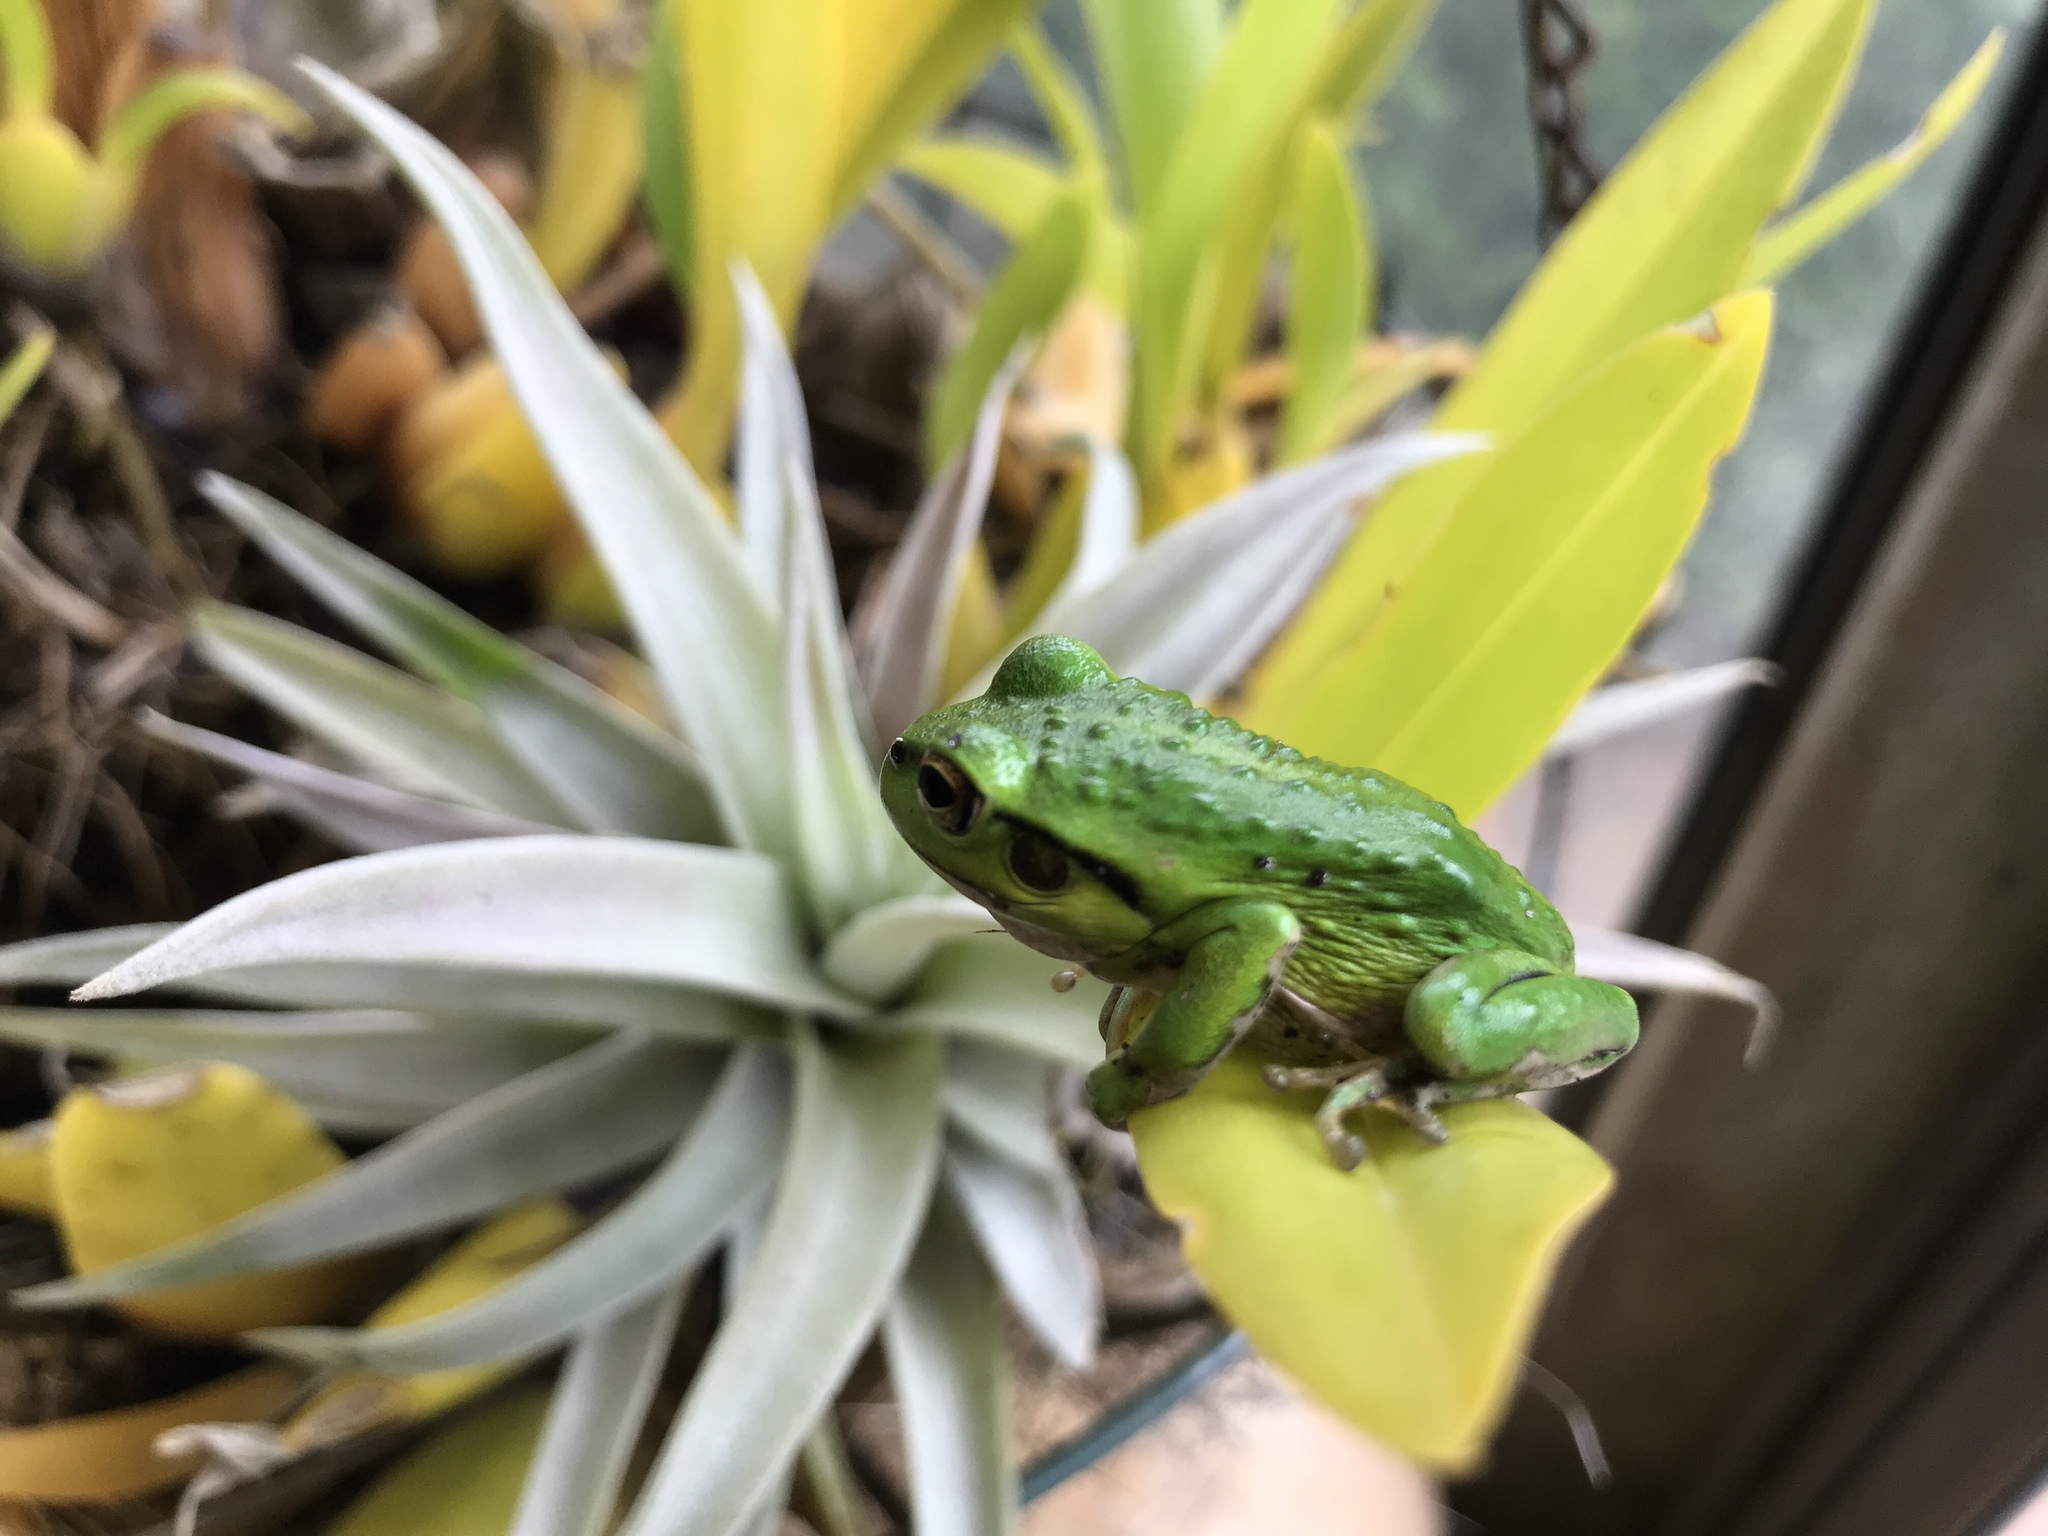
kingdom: Animalia
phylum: Chordata
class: Amphibia
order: Anura
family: Pelodryadidae
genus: Ranoidea
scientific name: Ranoidea moorei
